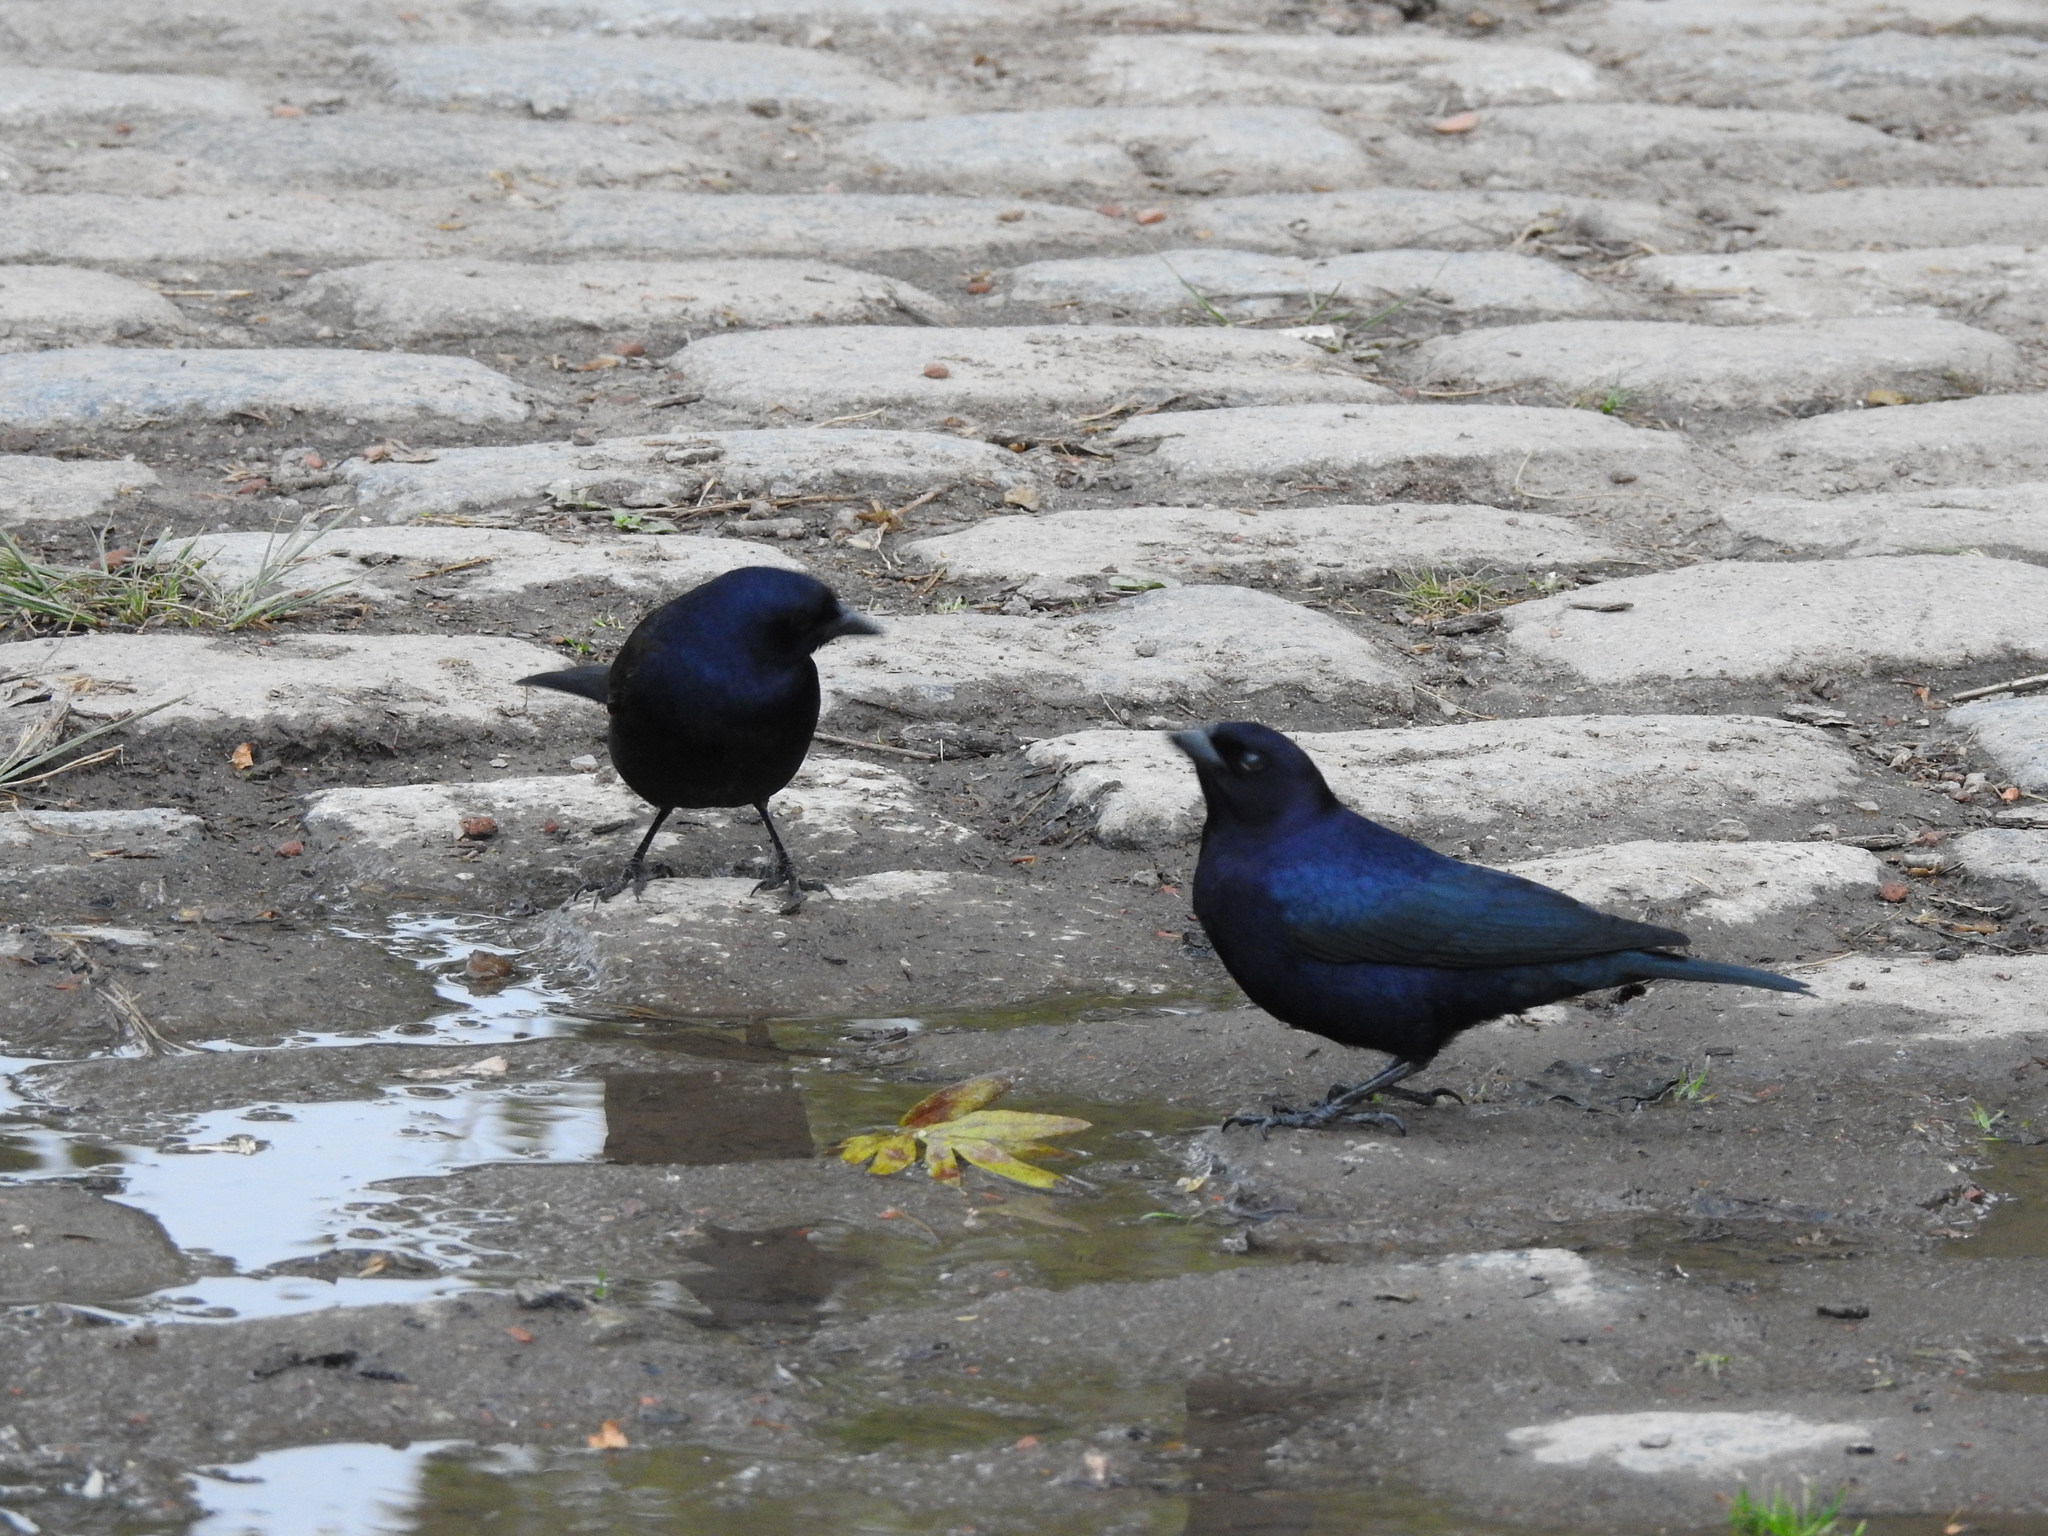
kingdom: Animalia
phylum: Chordata
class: Aves
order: Passeriformes
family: Icteridae
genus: Molothrus
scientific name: Molothrus bonariensis
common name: Shiny cowbird
